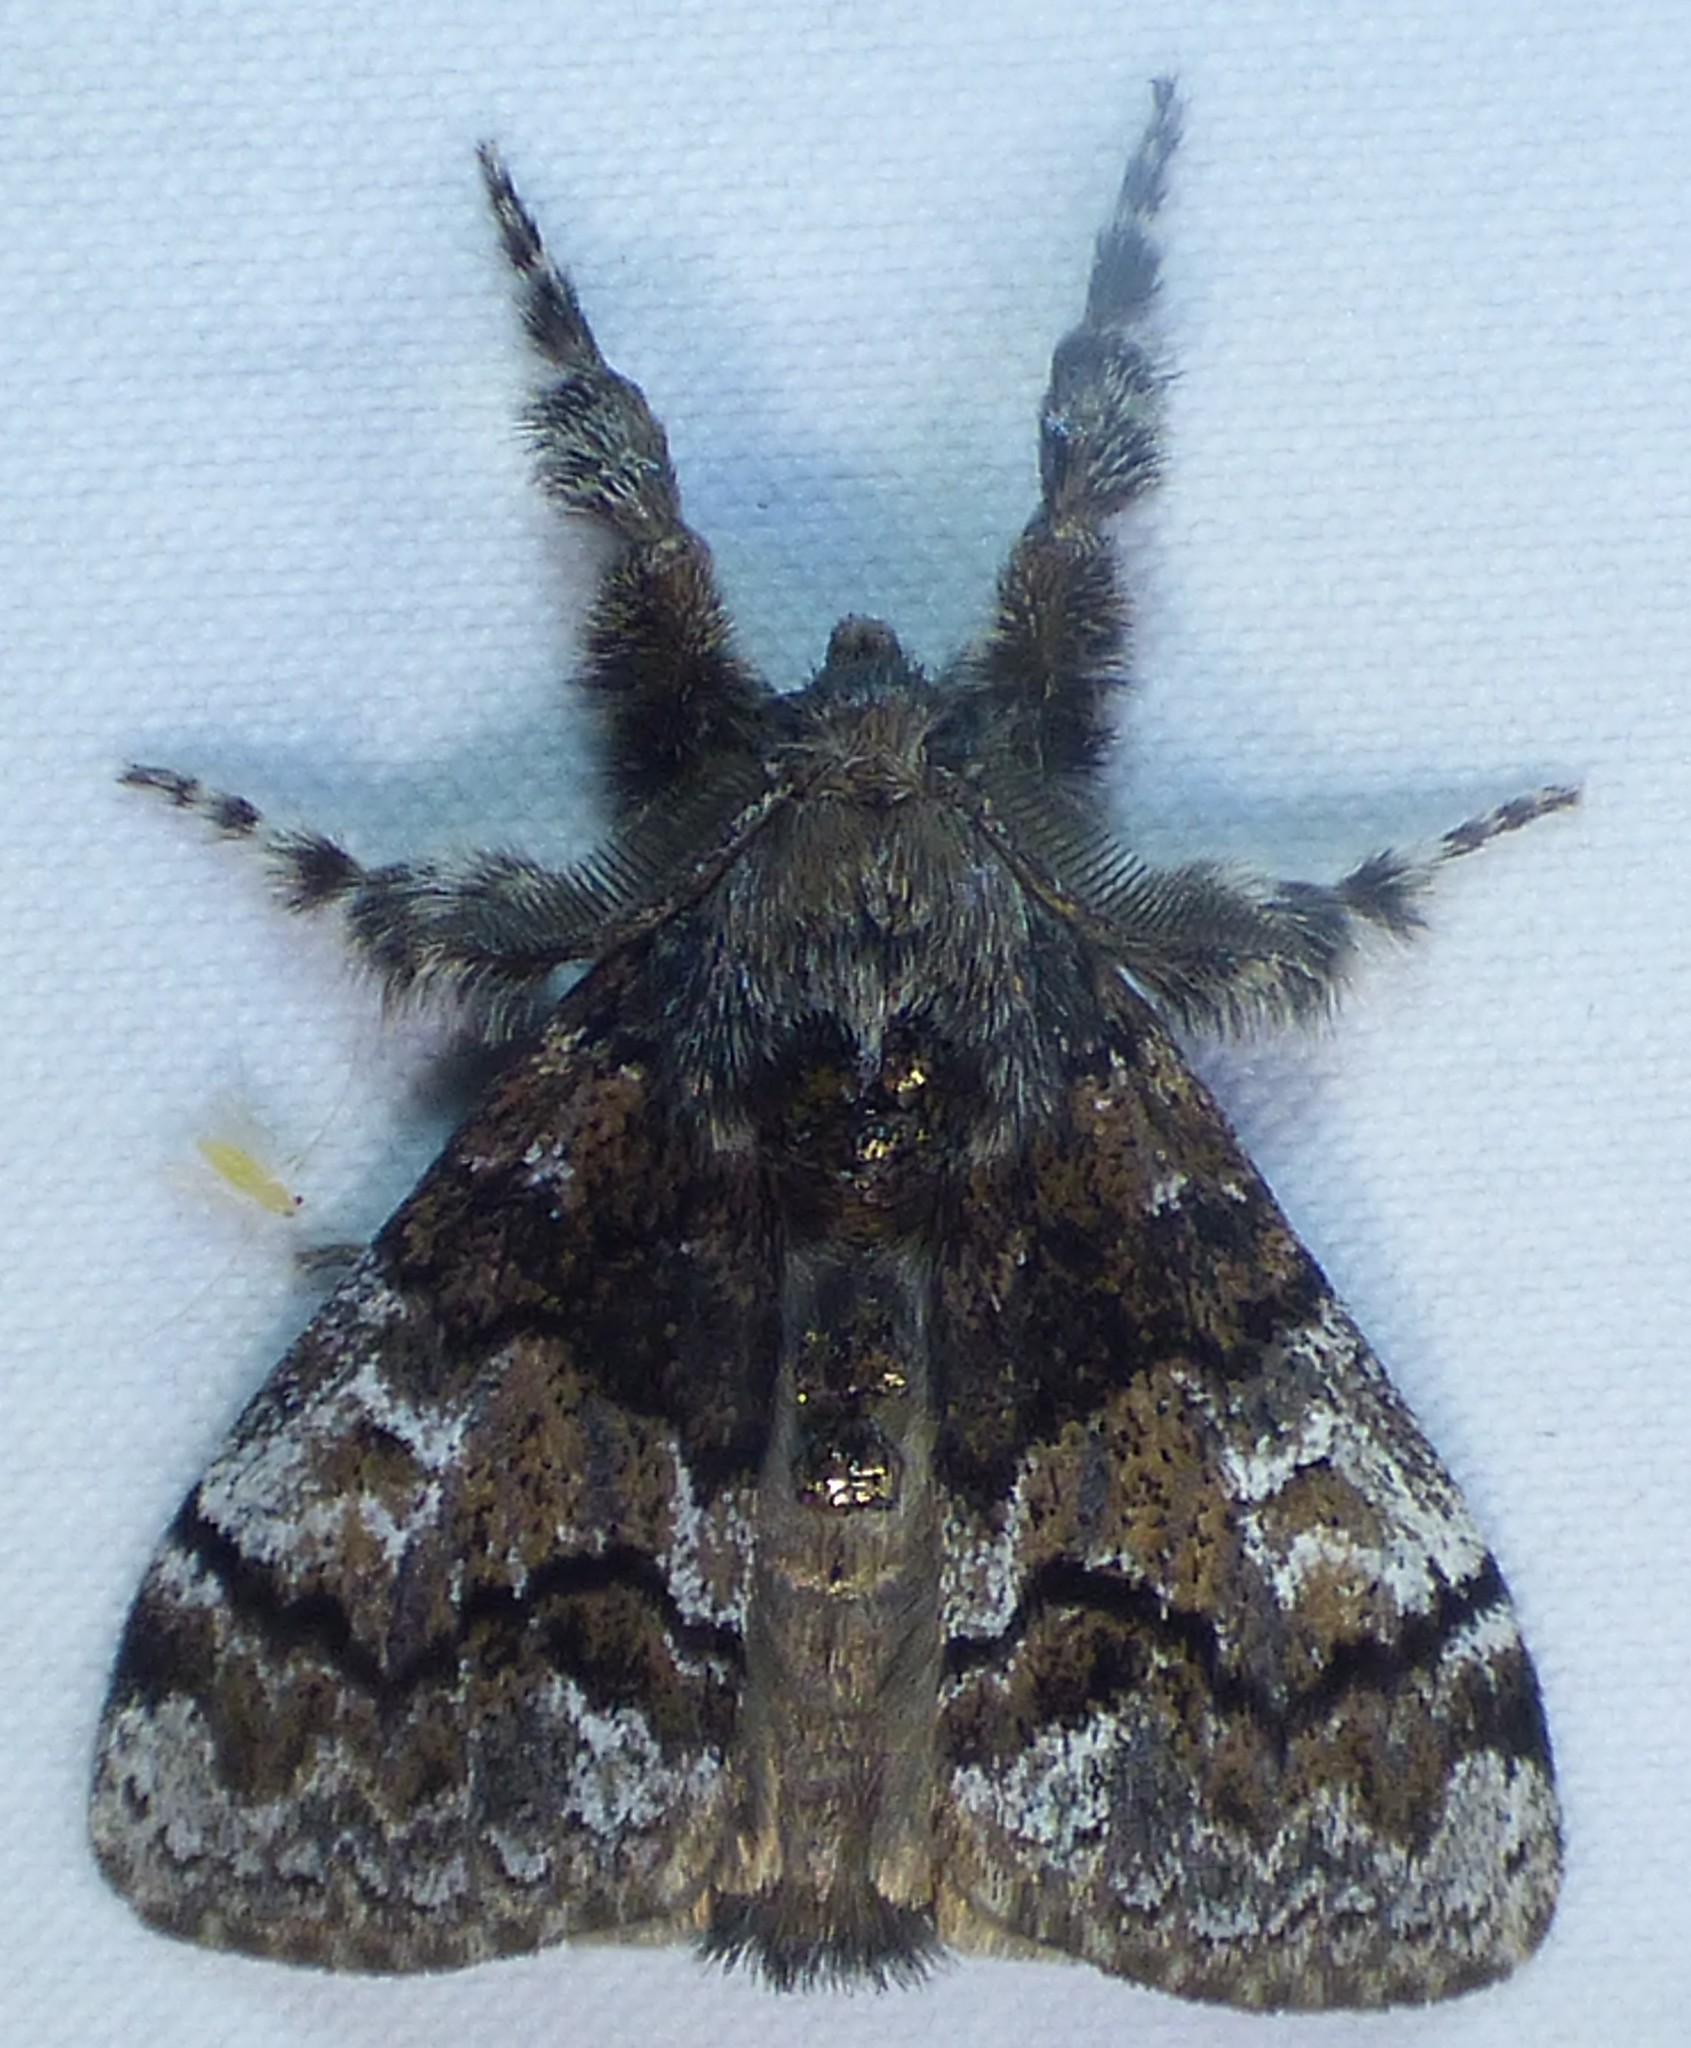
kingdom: Animalia
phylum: Arthropoda
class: Insecta
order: Lepidoptera
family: Erebidae
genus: Dasychira
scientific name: Dasychira manto
